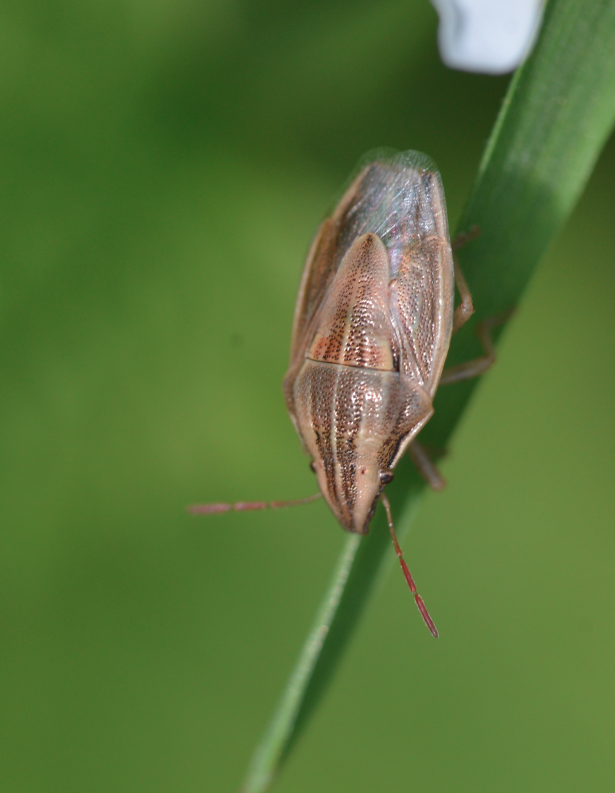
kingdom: Animalia
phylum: Arthropoda
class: Insecta
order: Hemiptera
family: Pentatomidae
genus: Aelia
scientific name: Aelia acuminata
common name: Bishop's mitre
